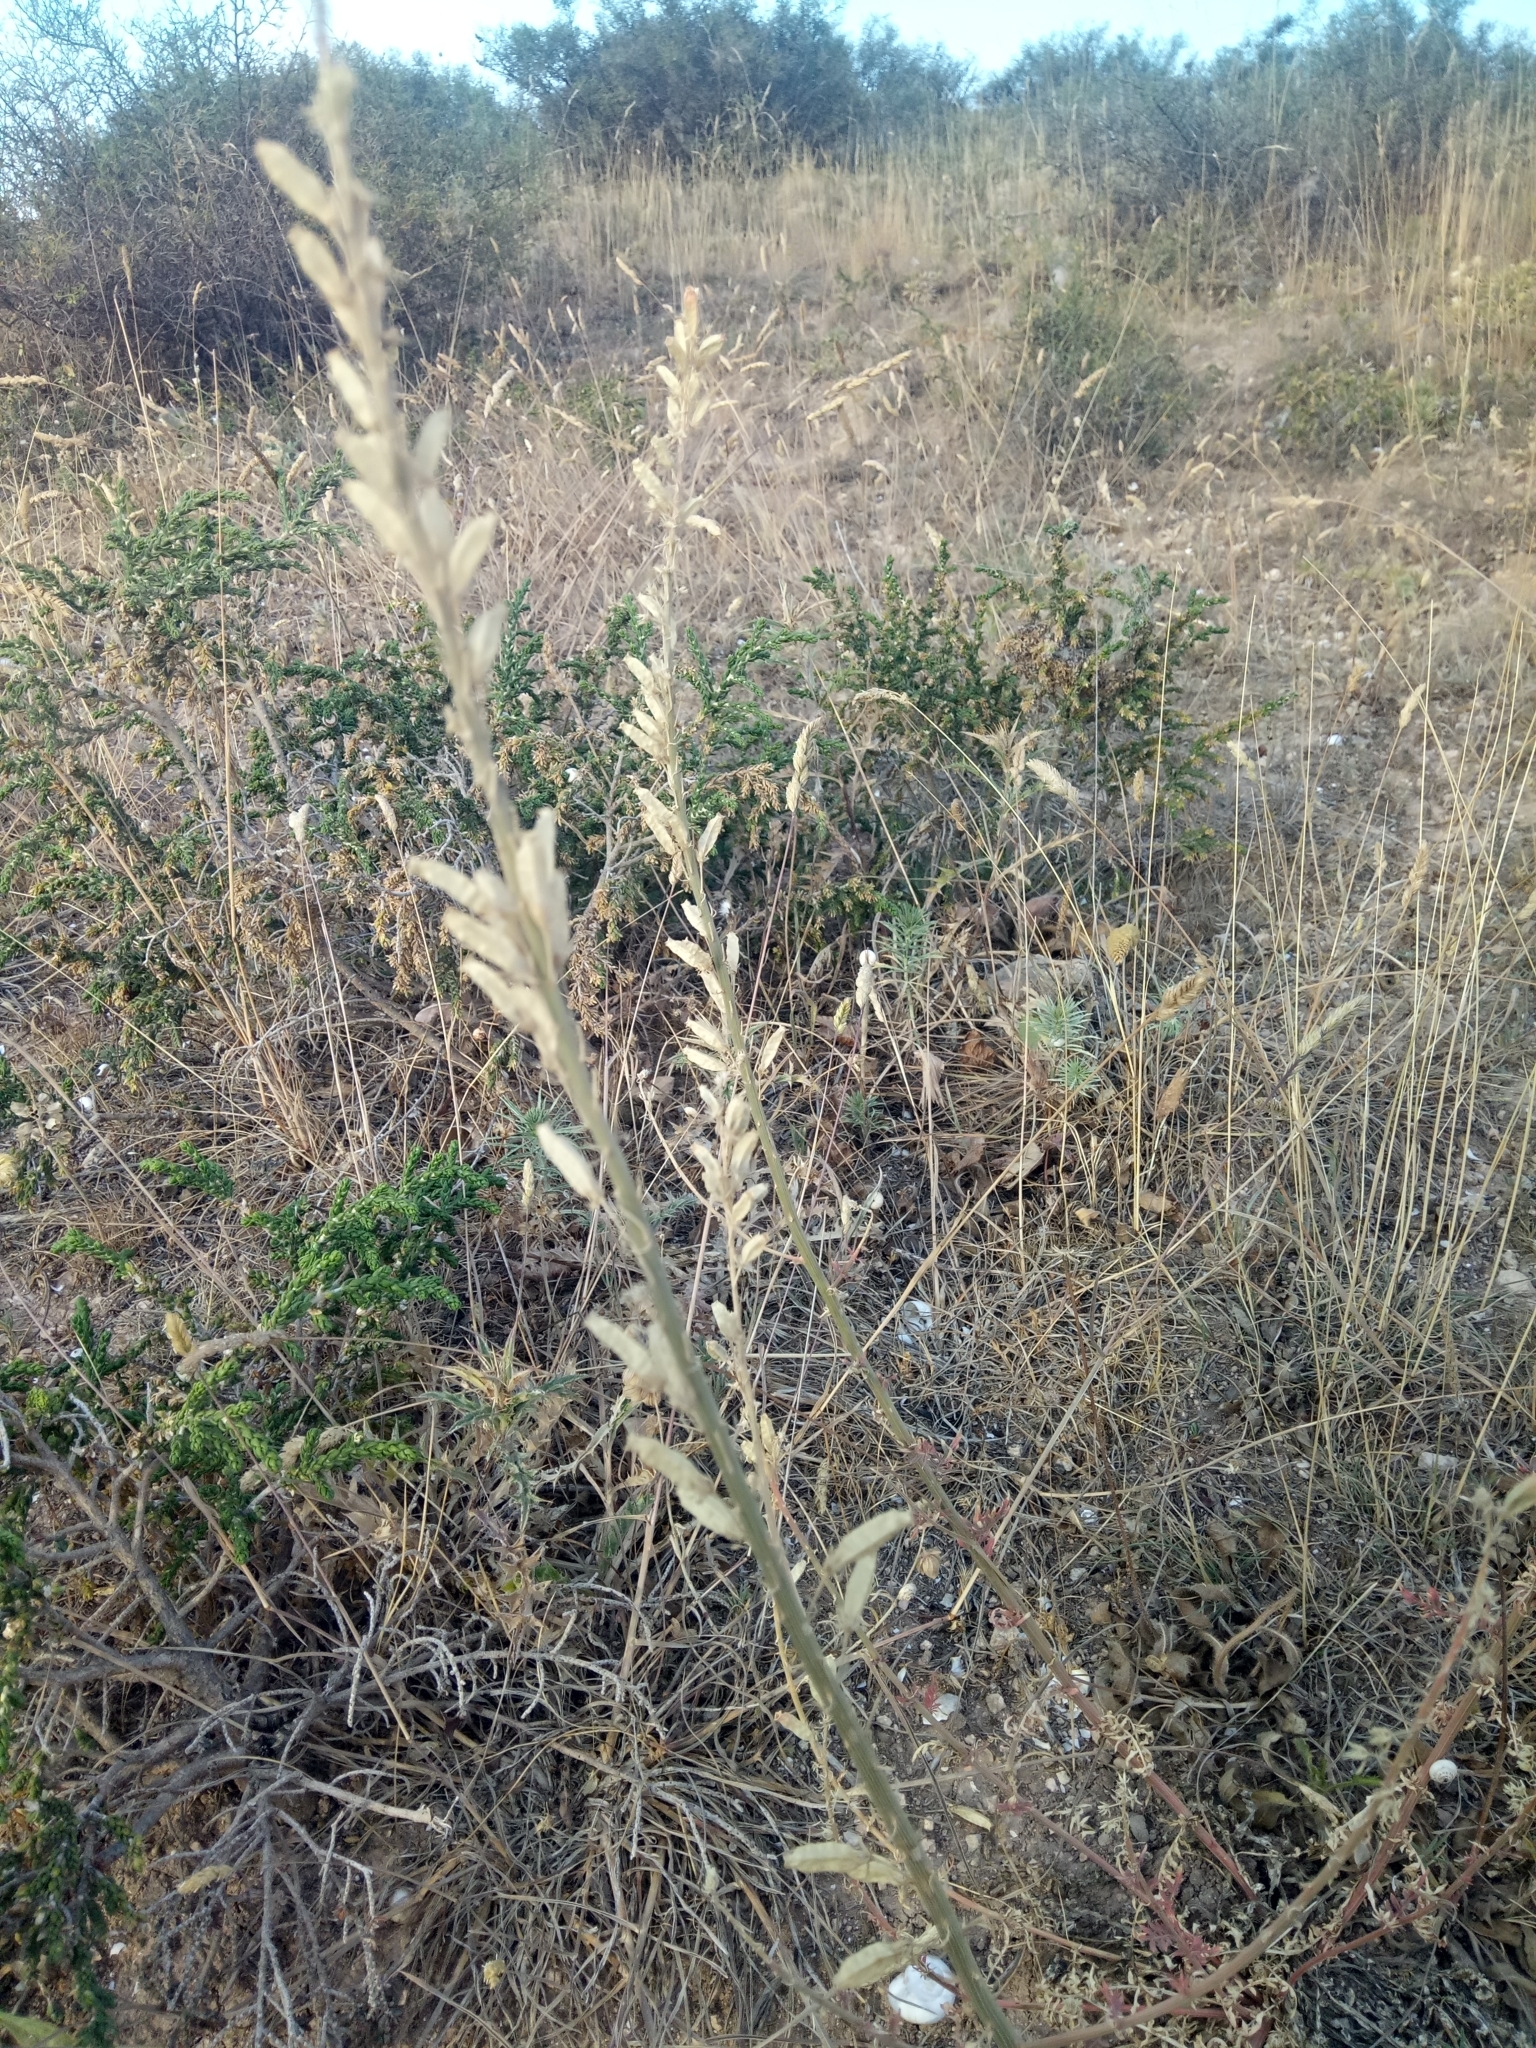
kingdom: Plantae
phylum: Tracheophyta
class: Magnoliopsida
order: Brassicales
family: Resedaceae
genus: Reseda
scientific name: Reseda alba
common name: White mignonette
